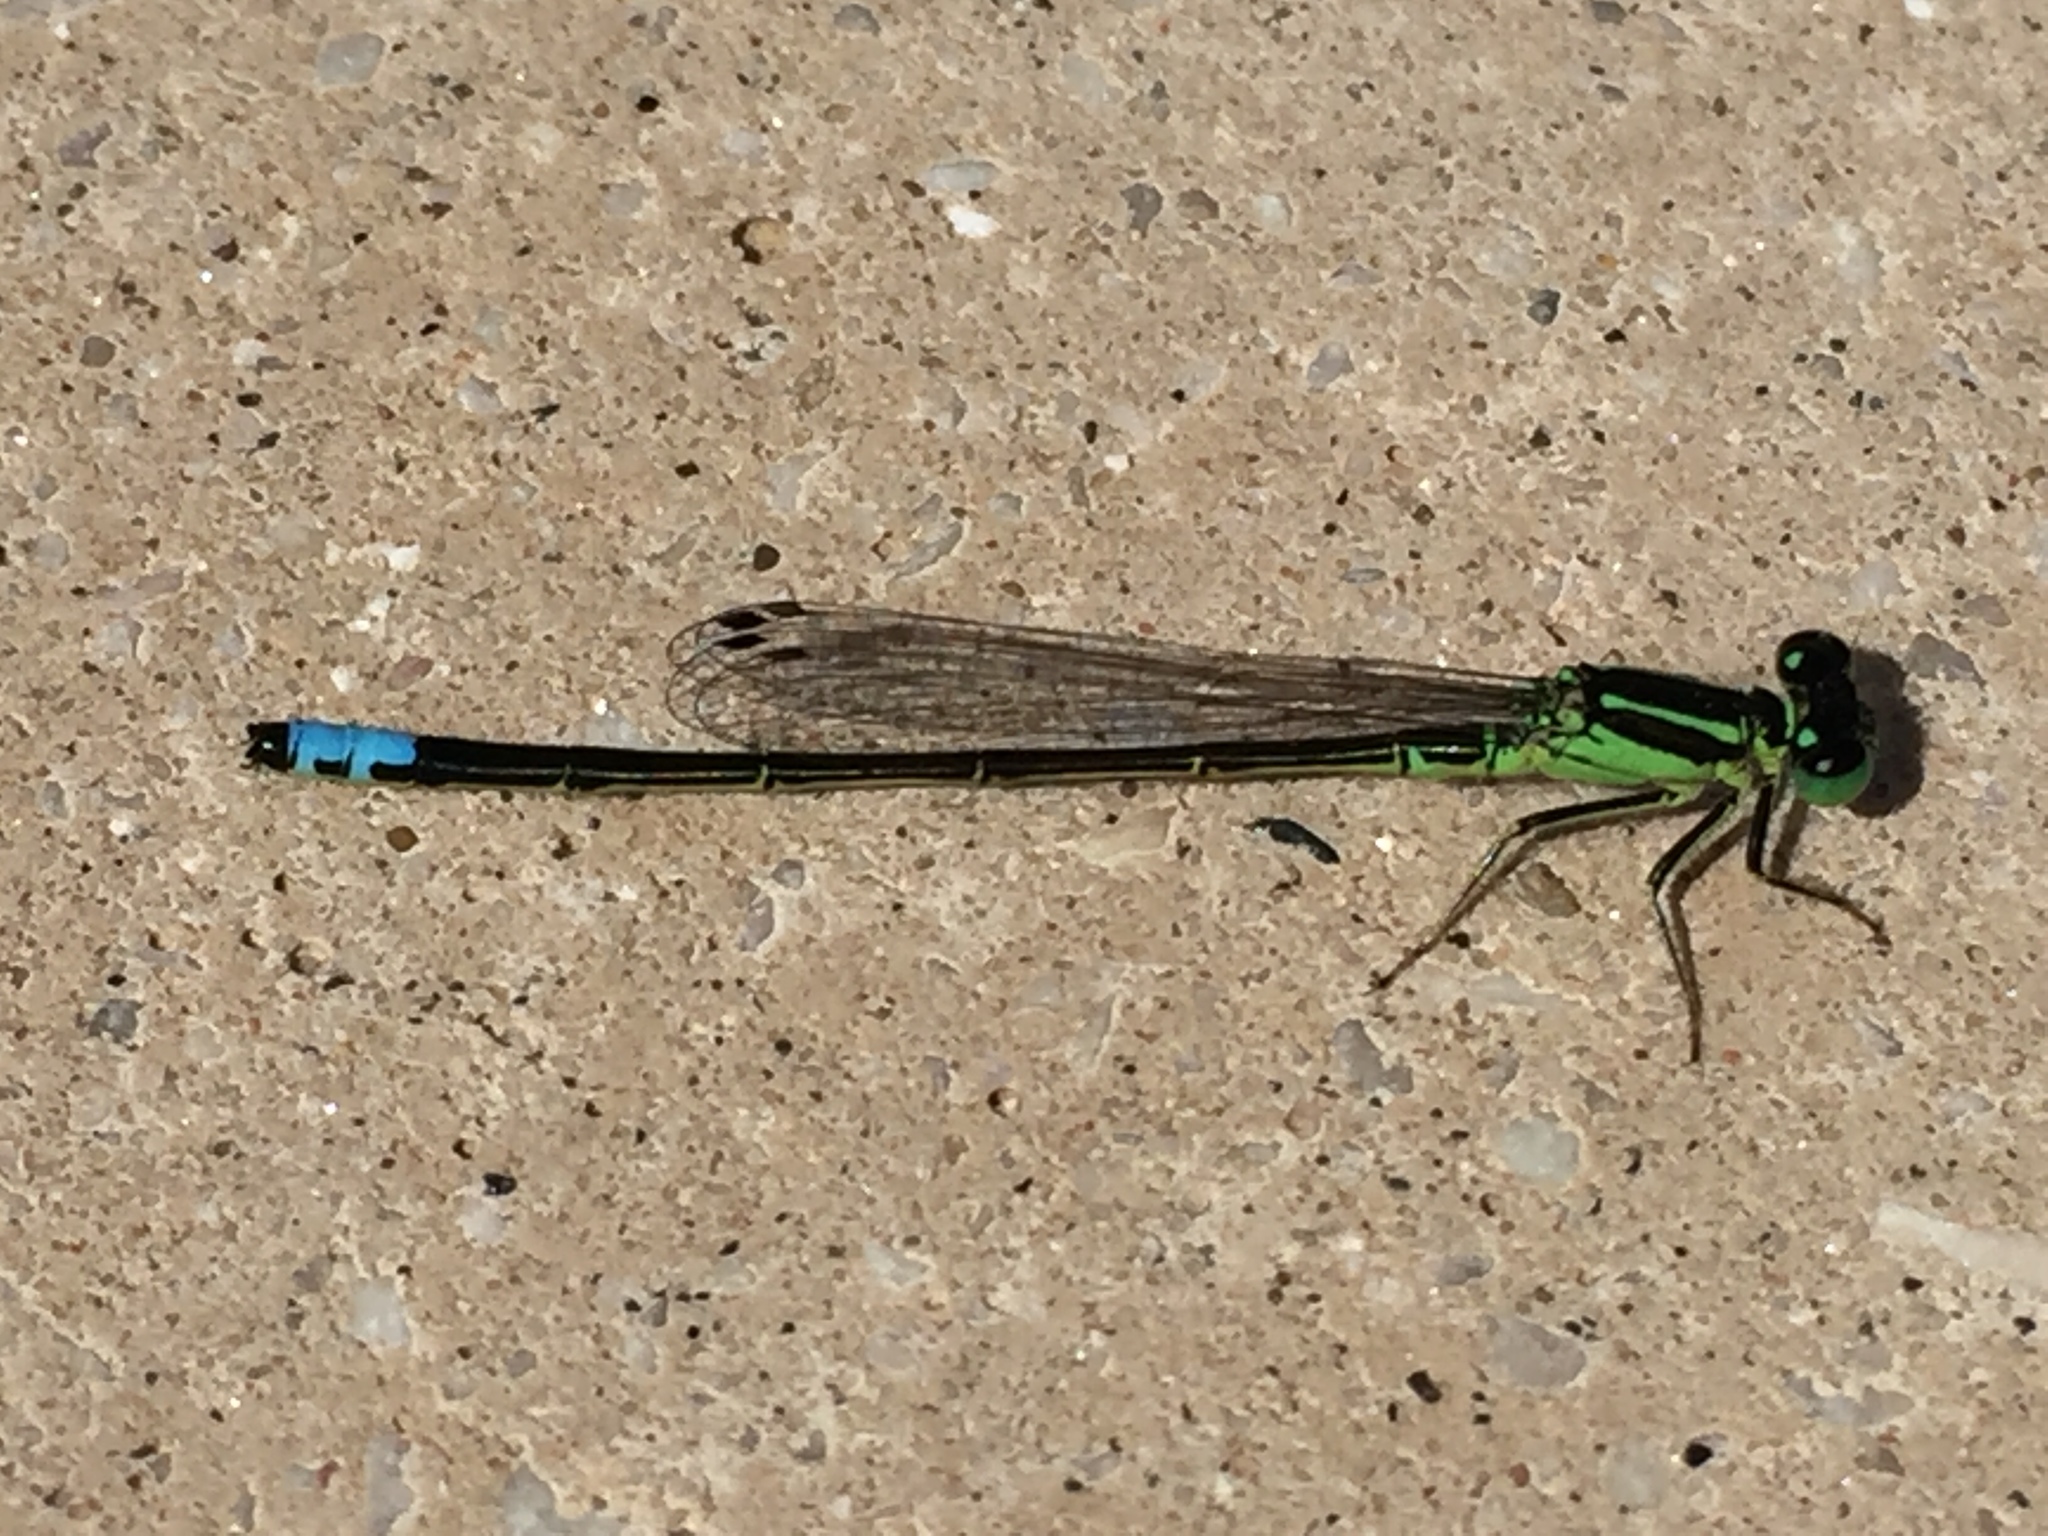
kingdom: Animalia
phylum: Arthropoda
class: Insecta
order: Odonata
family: Coenagrionidae
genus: Ischnura
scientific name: Ischnura verticalis
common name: Eastern forktail
